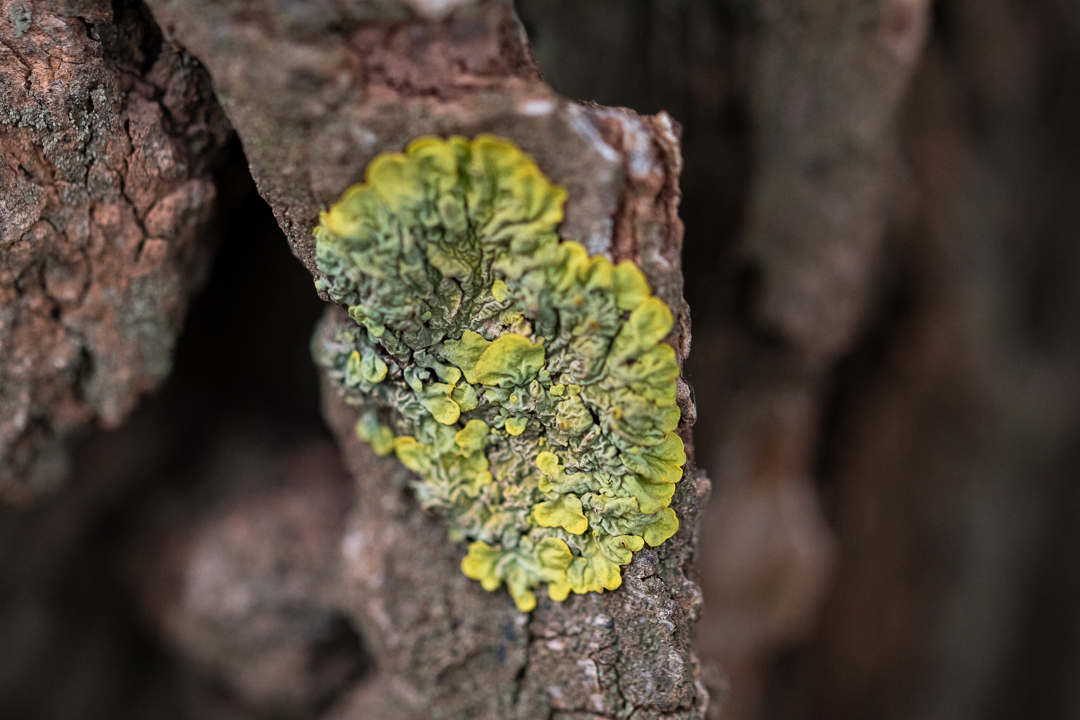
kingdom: Fungi
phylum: Ascomycota
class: Lecanoromycetes
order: Teloschistales
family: Teloschistaceae
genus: Xanthoria
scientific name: Xanthoria parietina
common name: Common orange lichen
